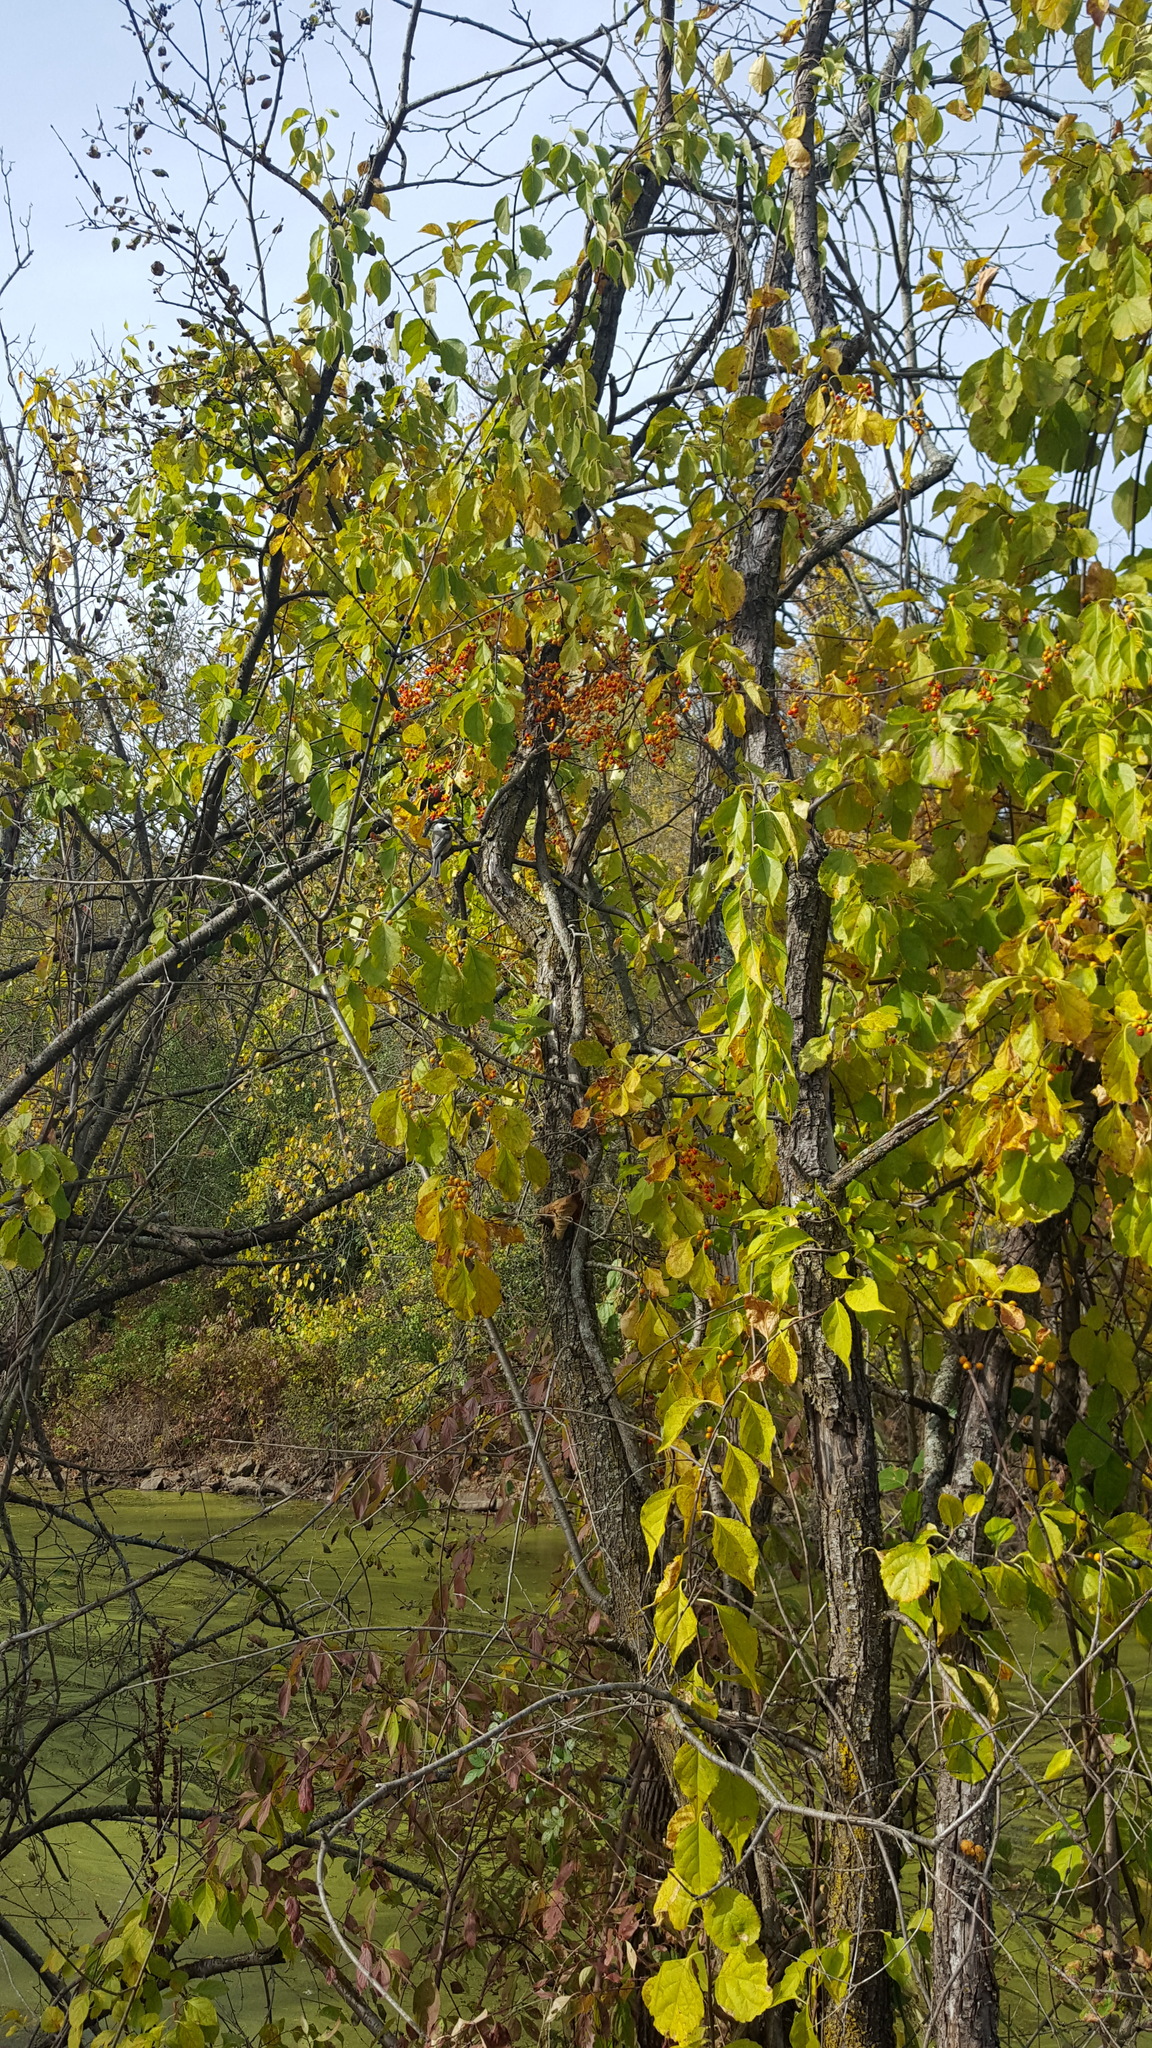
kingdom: Plantae
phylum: Tracheophyta
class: Magnoliopsida
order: Celastrales
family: Celastraceae
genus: Celastrus
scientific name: Celastrus orbiculatus
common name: Oriental bittersweet
